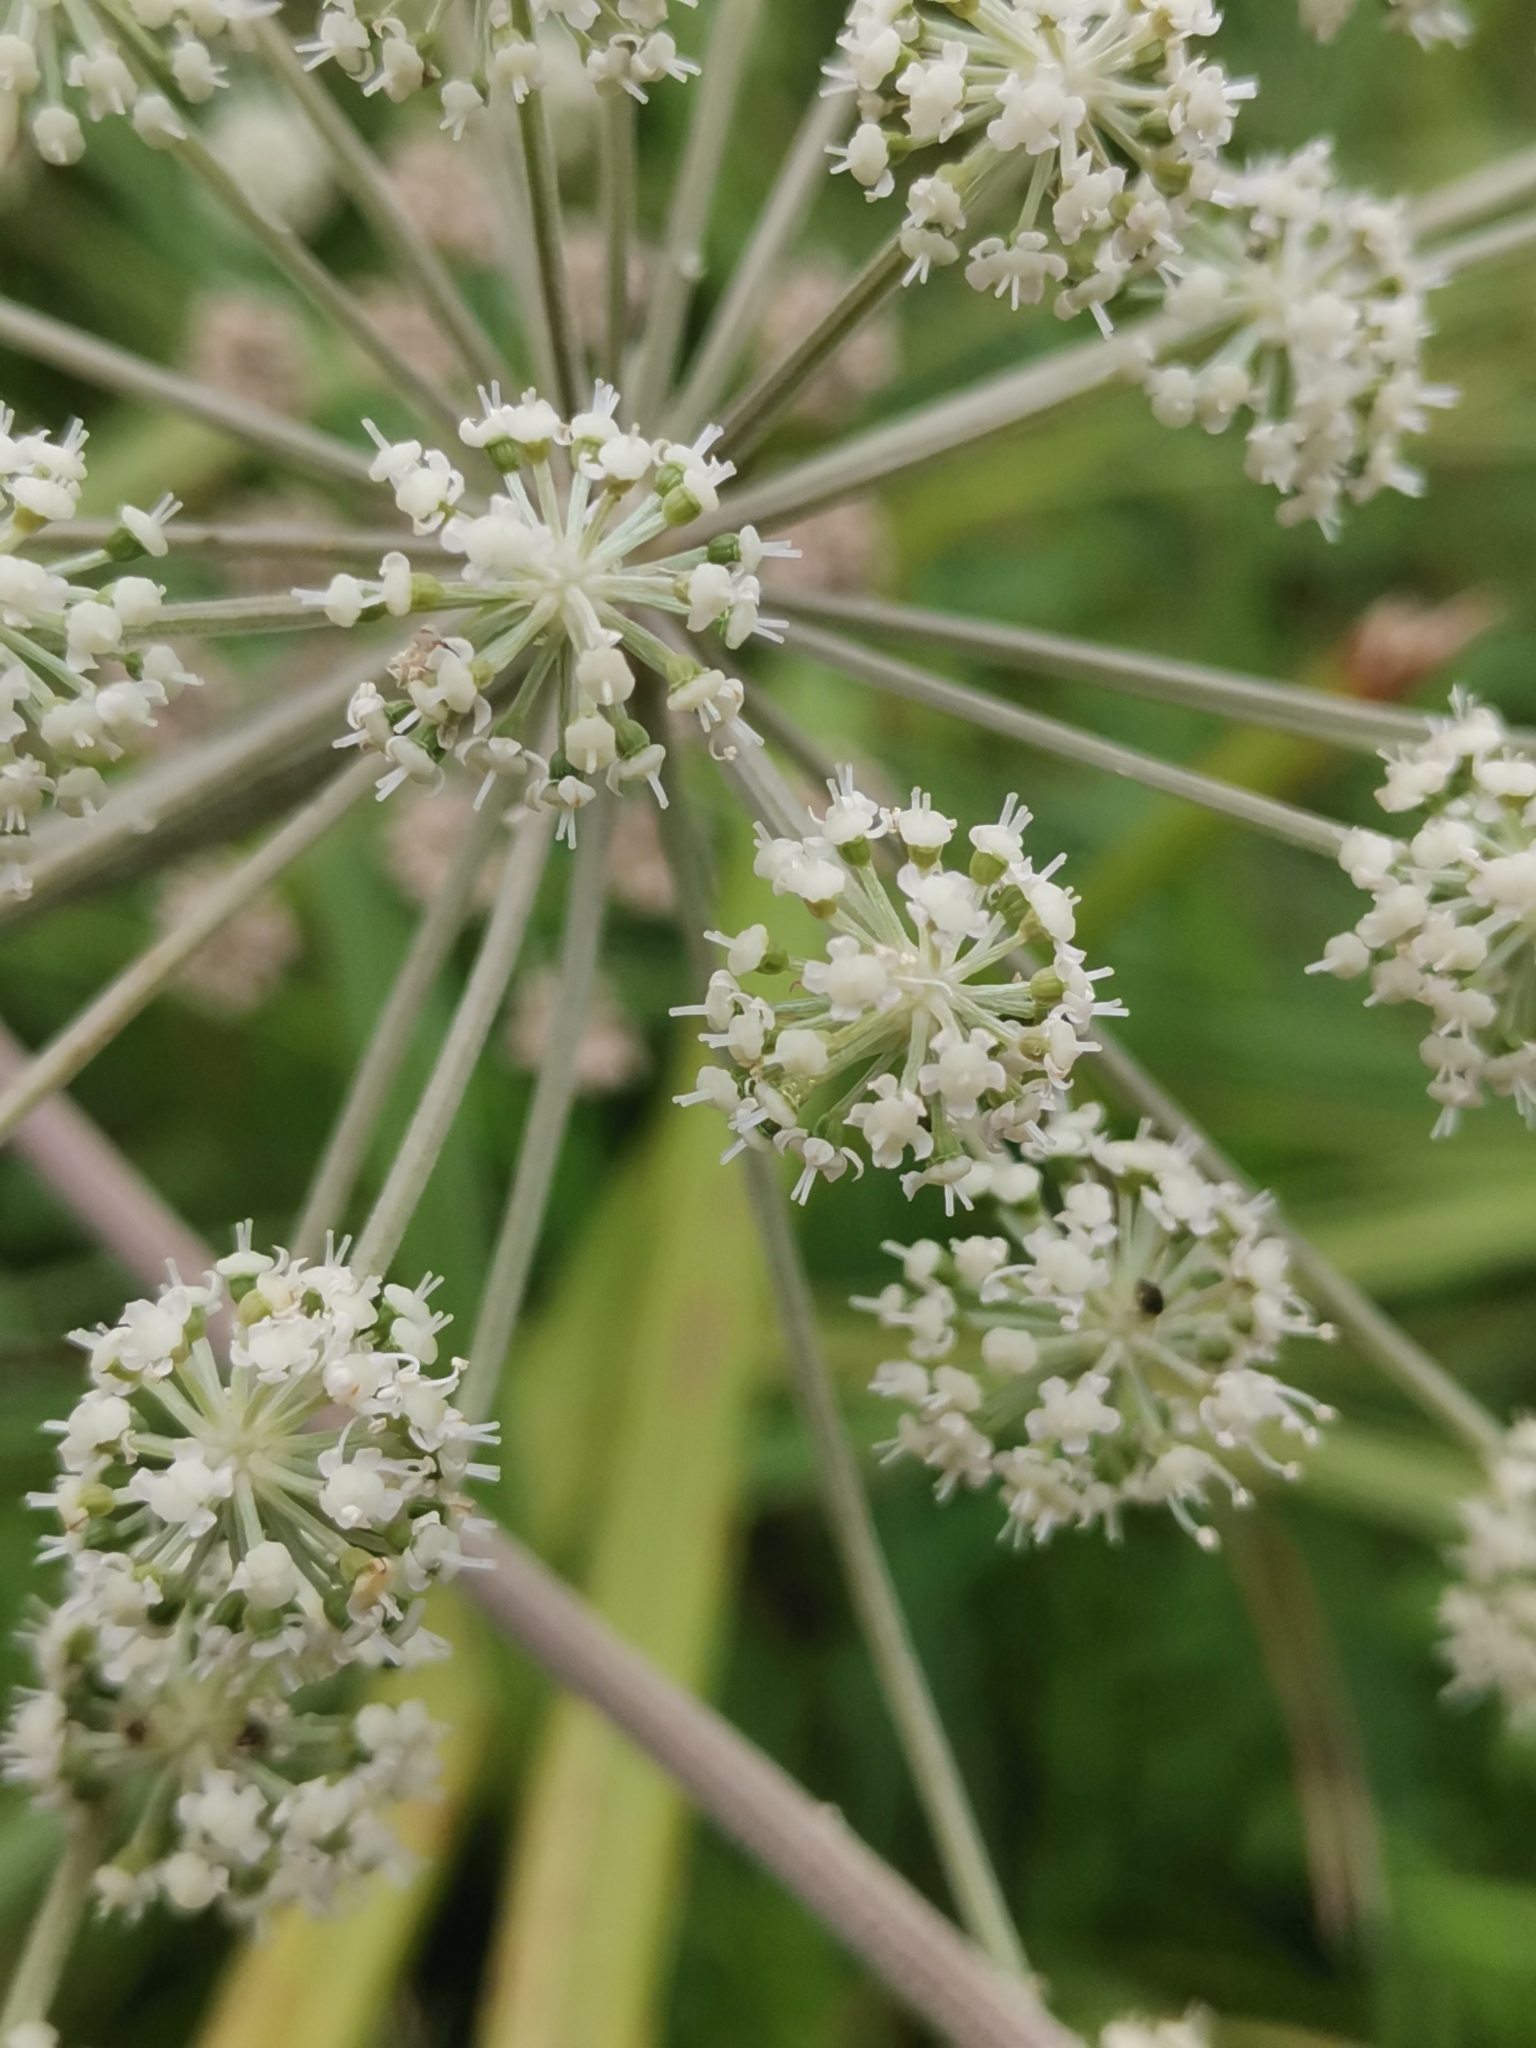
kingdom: Plantae
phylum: Tracheophyta
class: Magnoliopsida
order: Apiales
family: Apiaceae
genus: Angelica
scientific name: Angelica sylvestris
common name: Wild angelica
